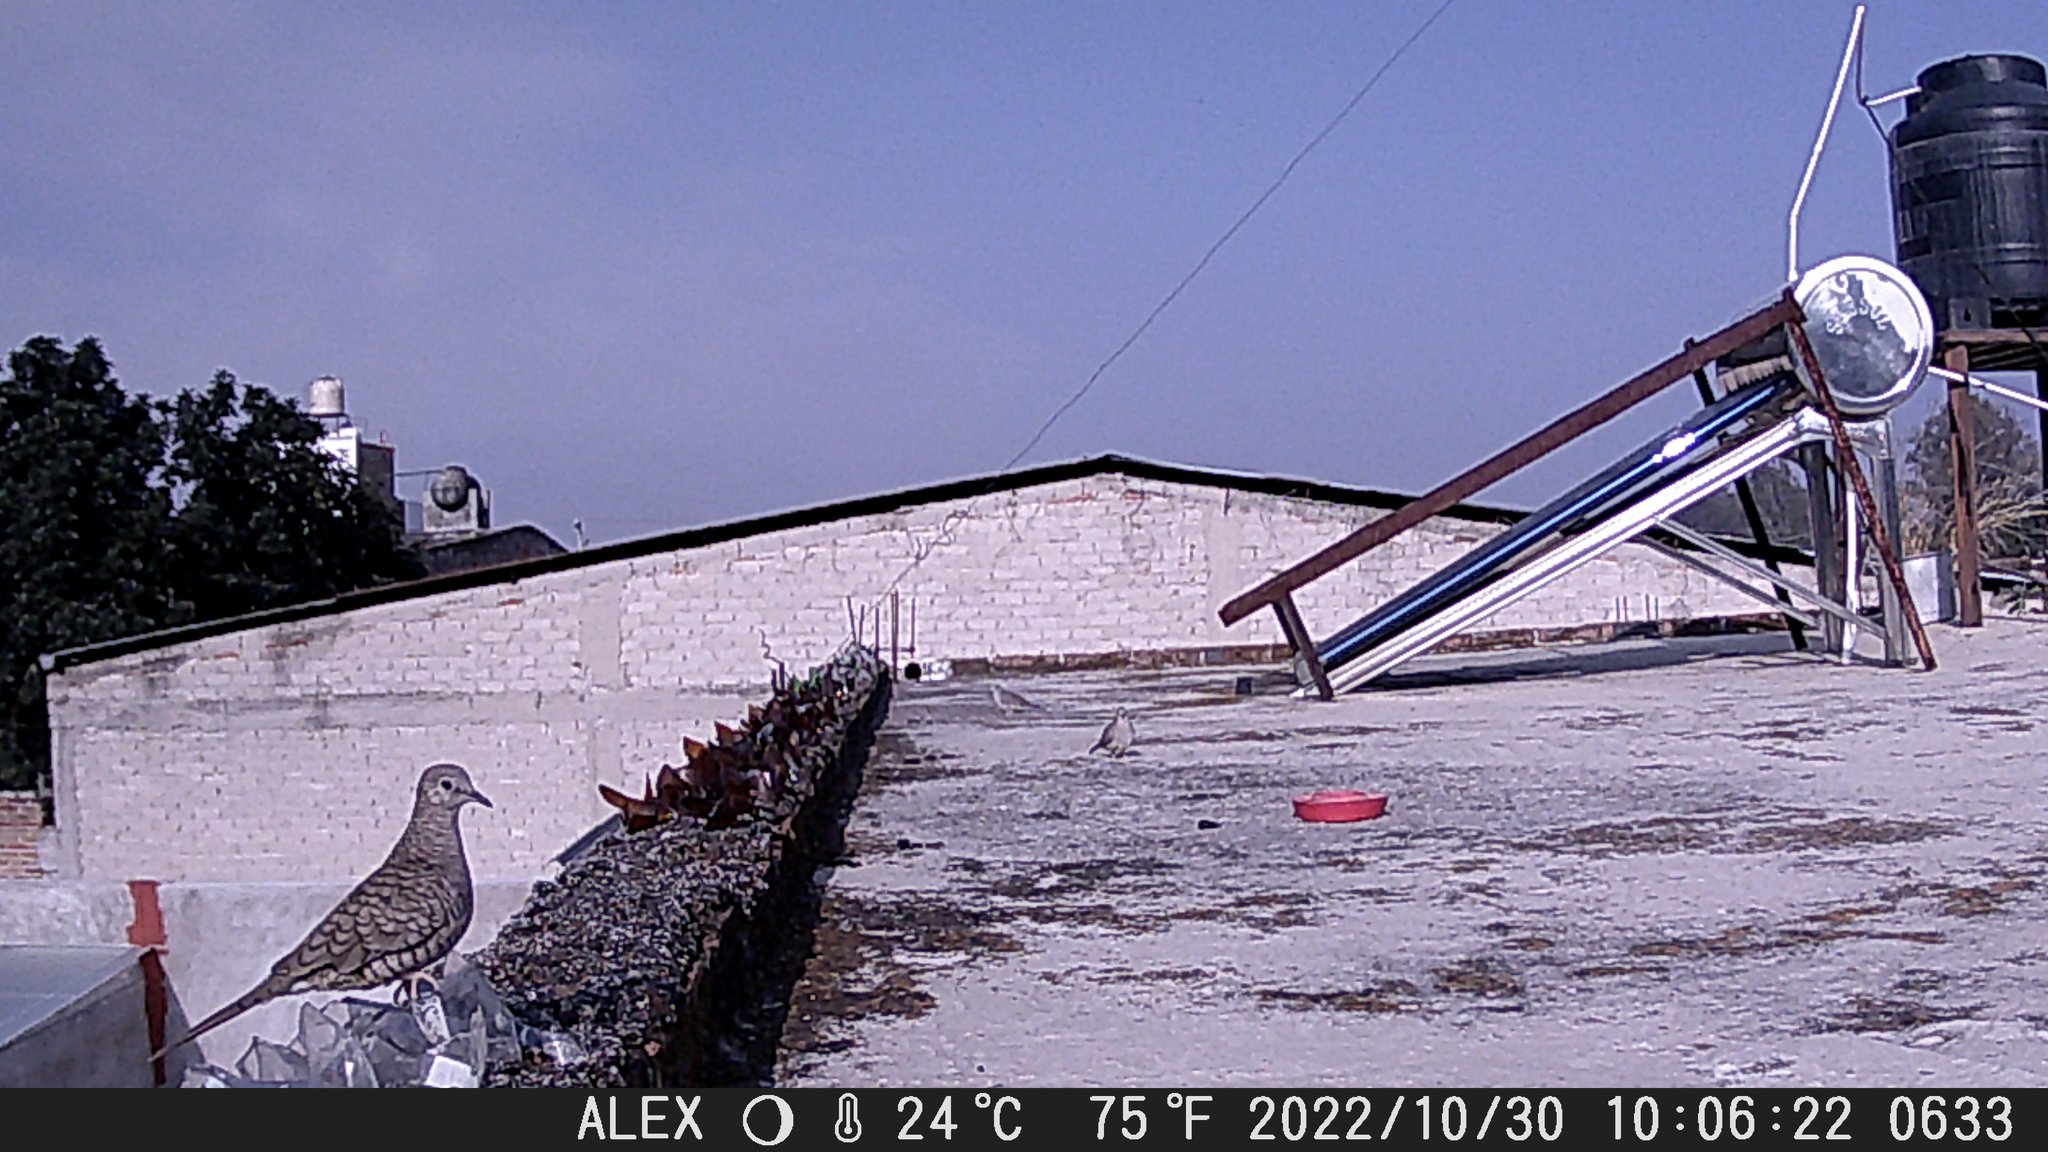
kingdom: Animalia
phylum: Chordata
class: Aves
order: Columbiformes
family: Columbidae
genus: Columbina
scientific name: Columbina inca
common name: Inca dove
